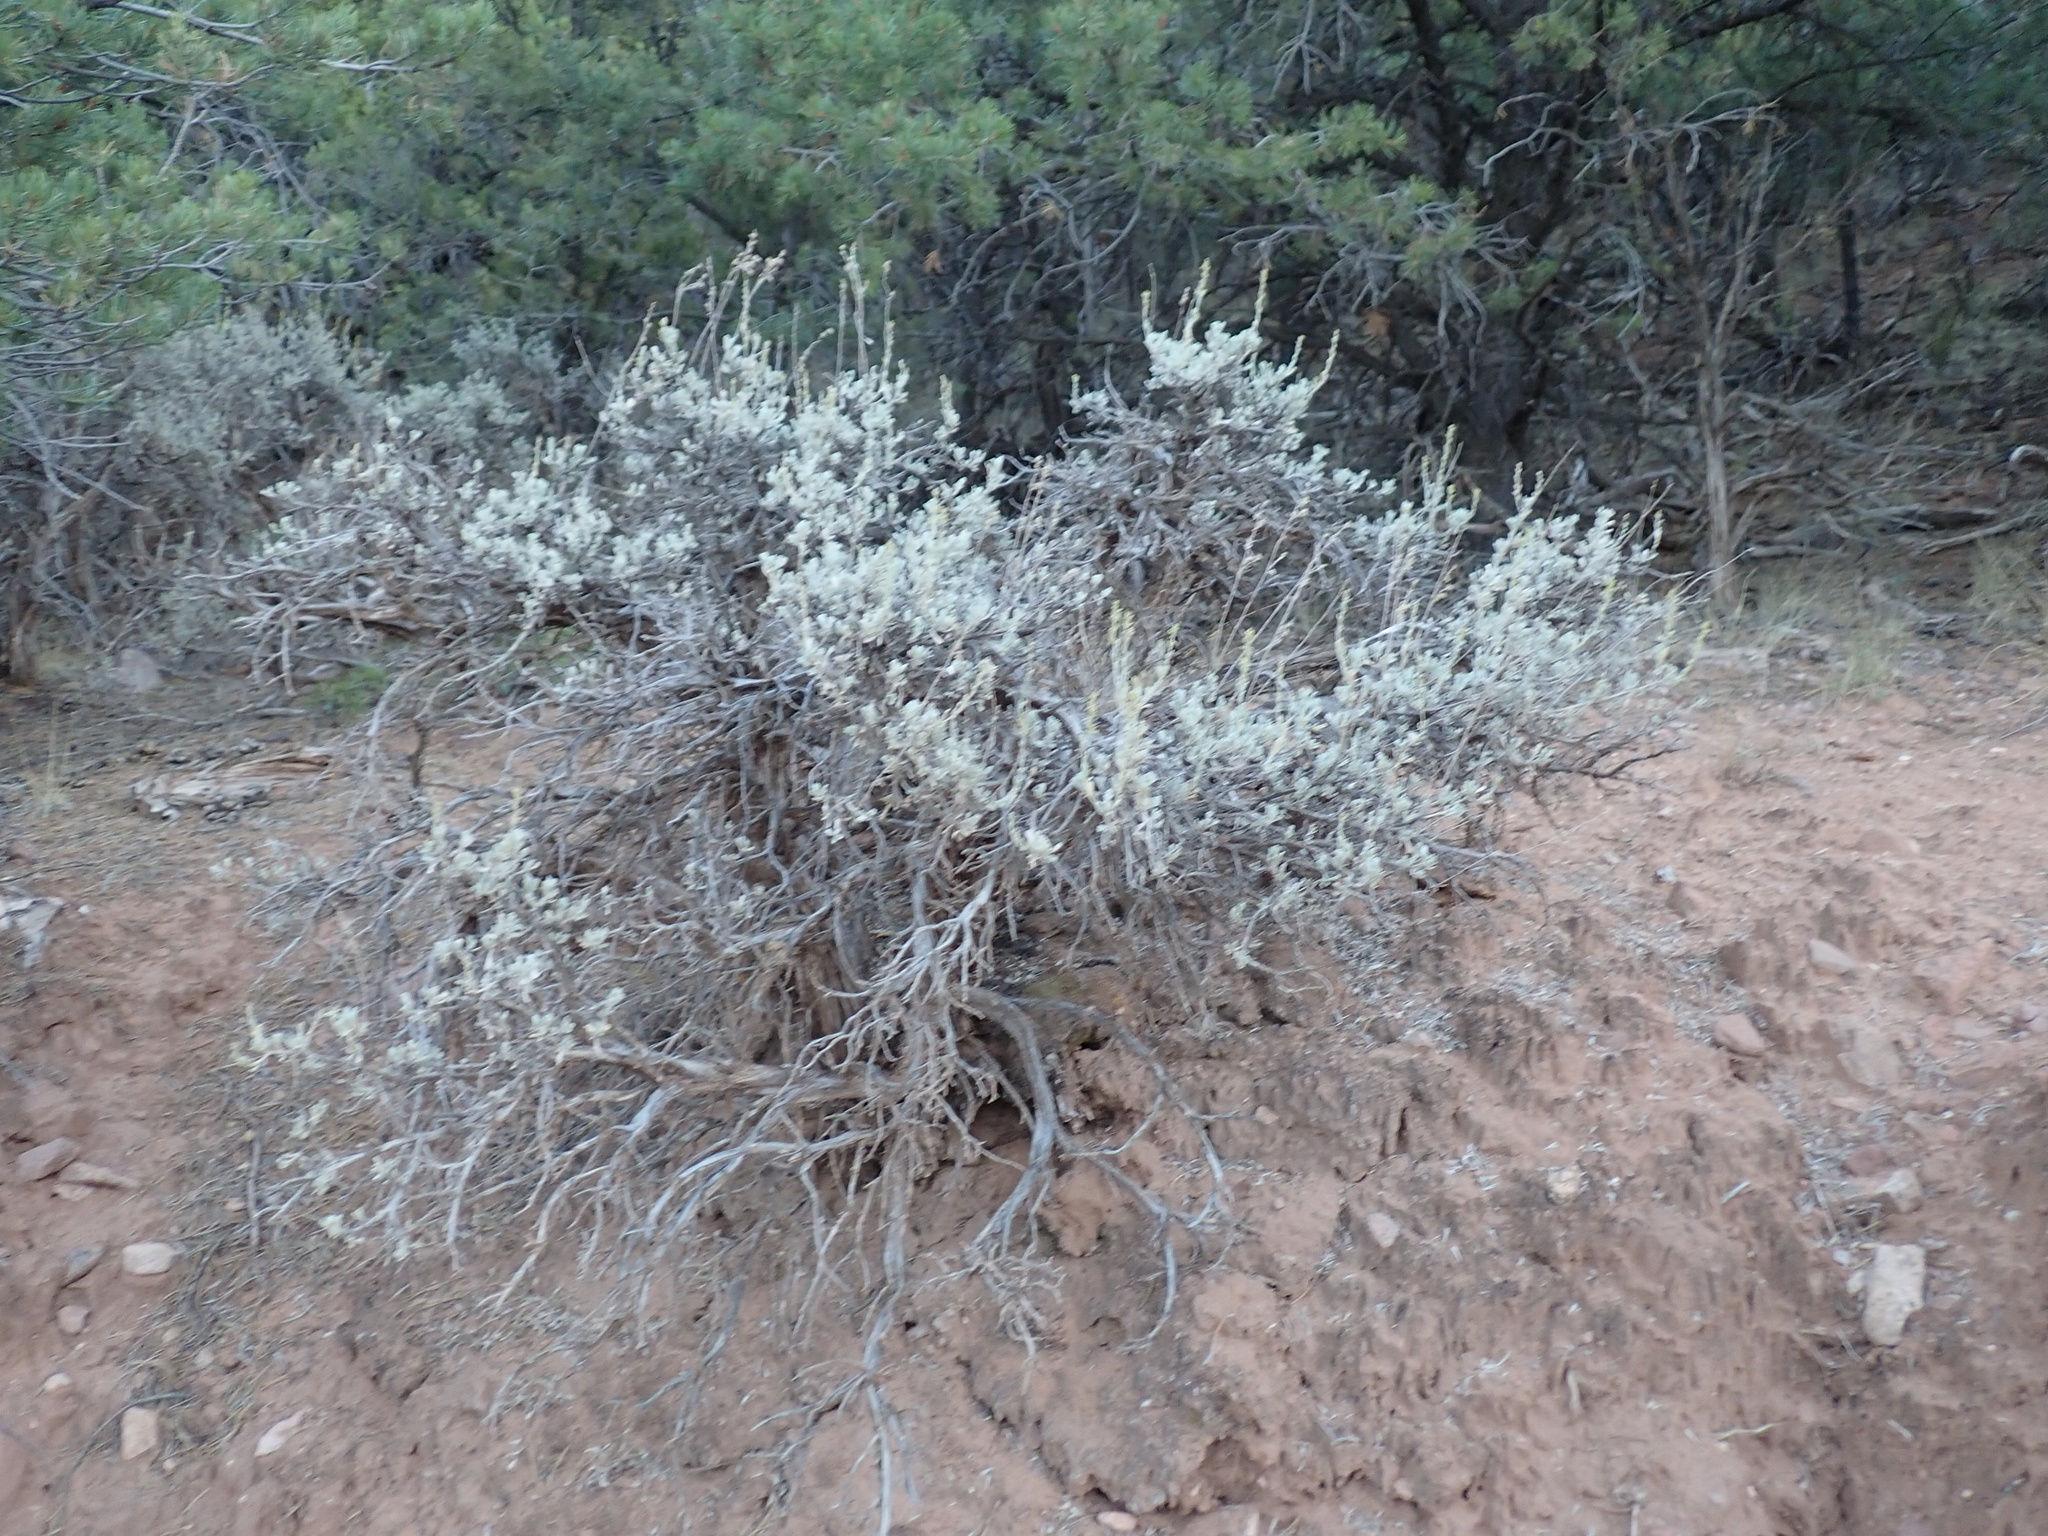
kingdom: Plantae
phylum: Tracheophyta
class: Magnoliopsida
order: Asterales
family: Asteraceae
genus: Artemisia
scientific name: Artemisia tridentata
